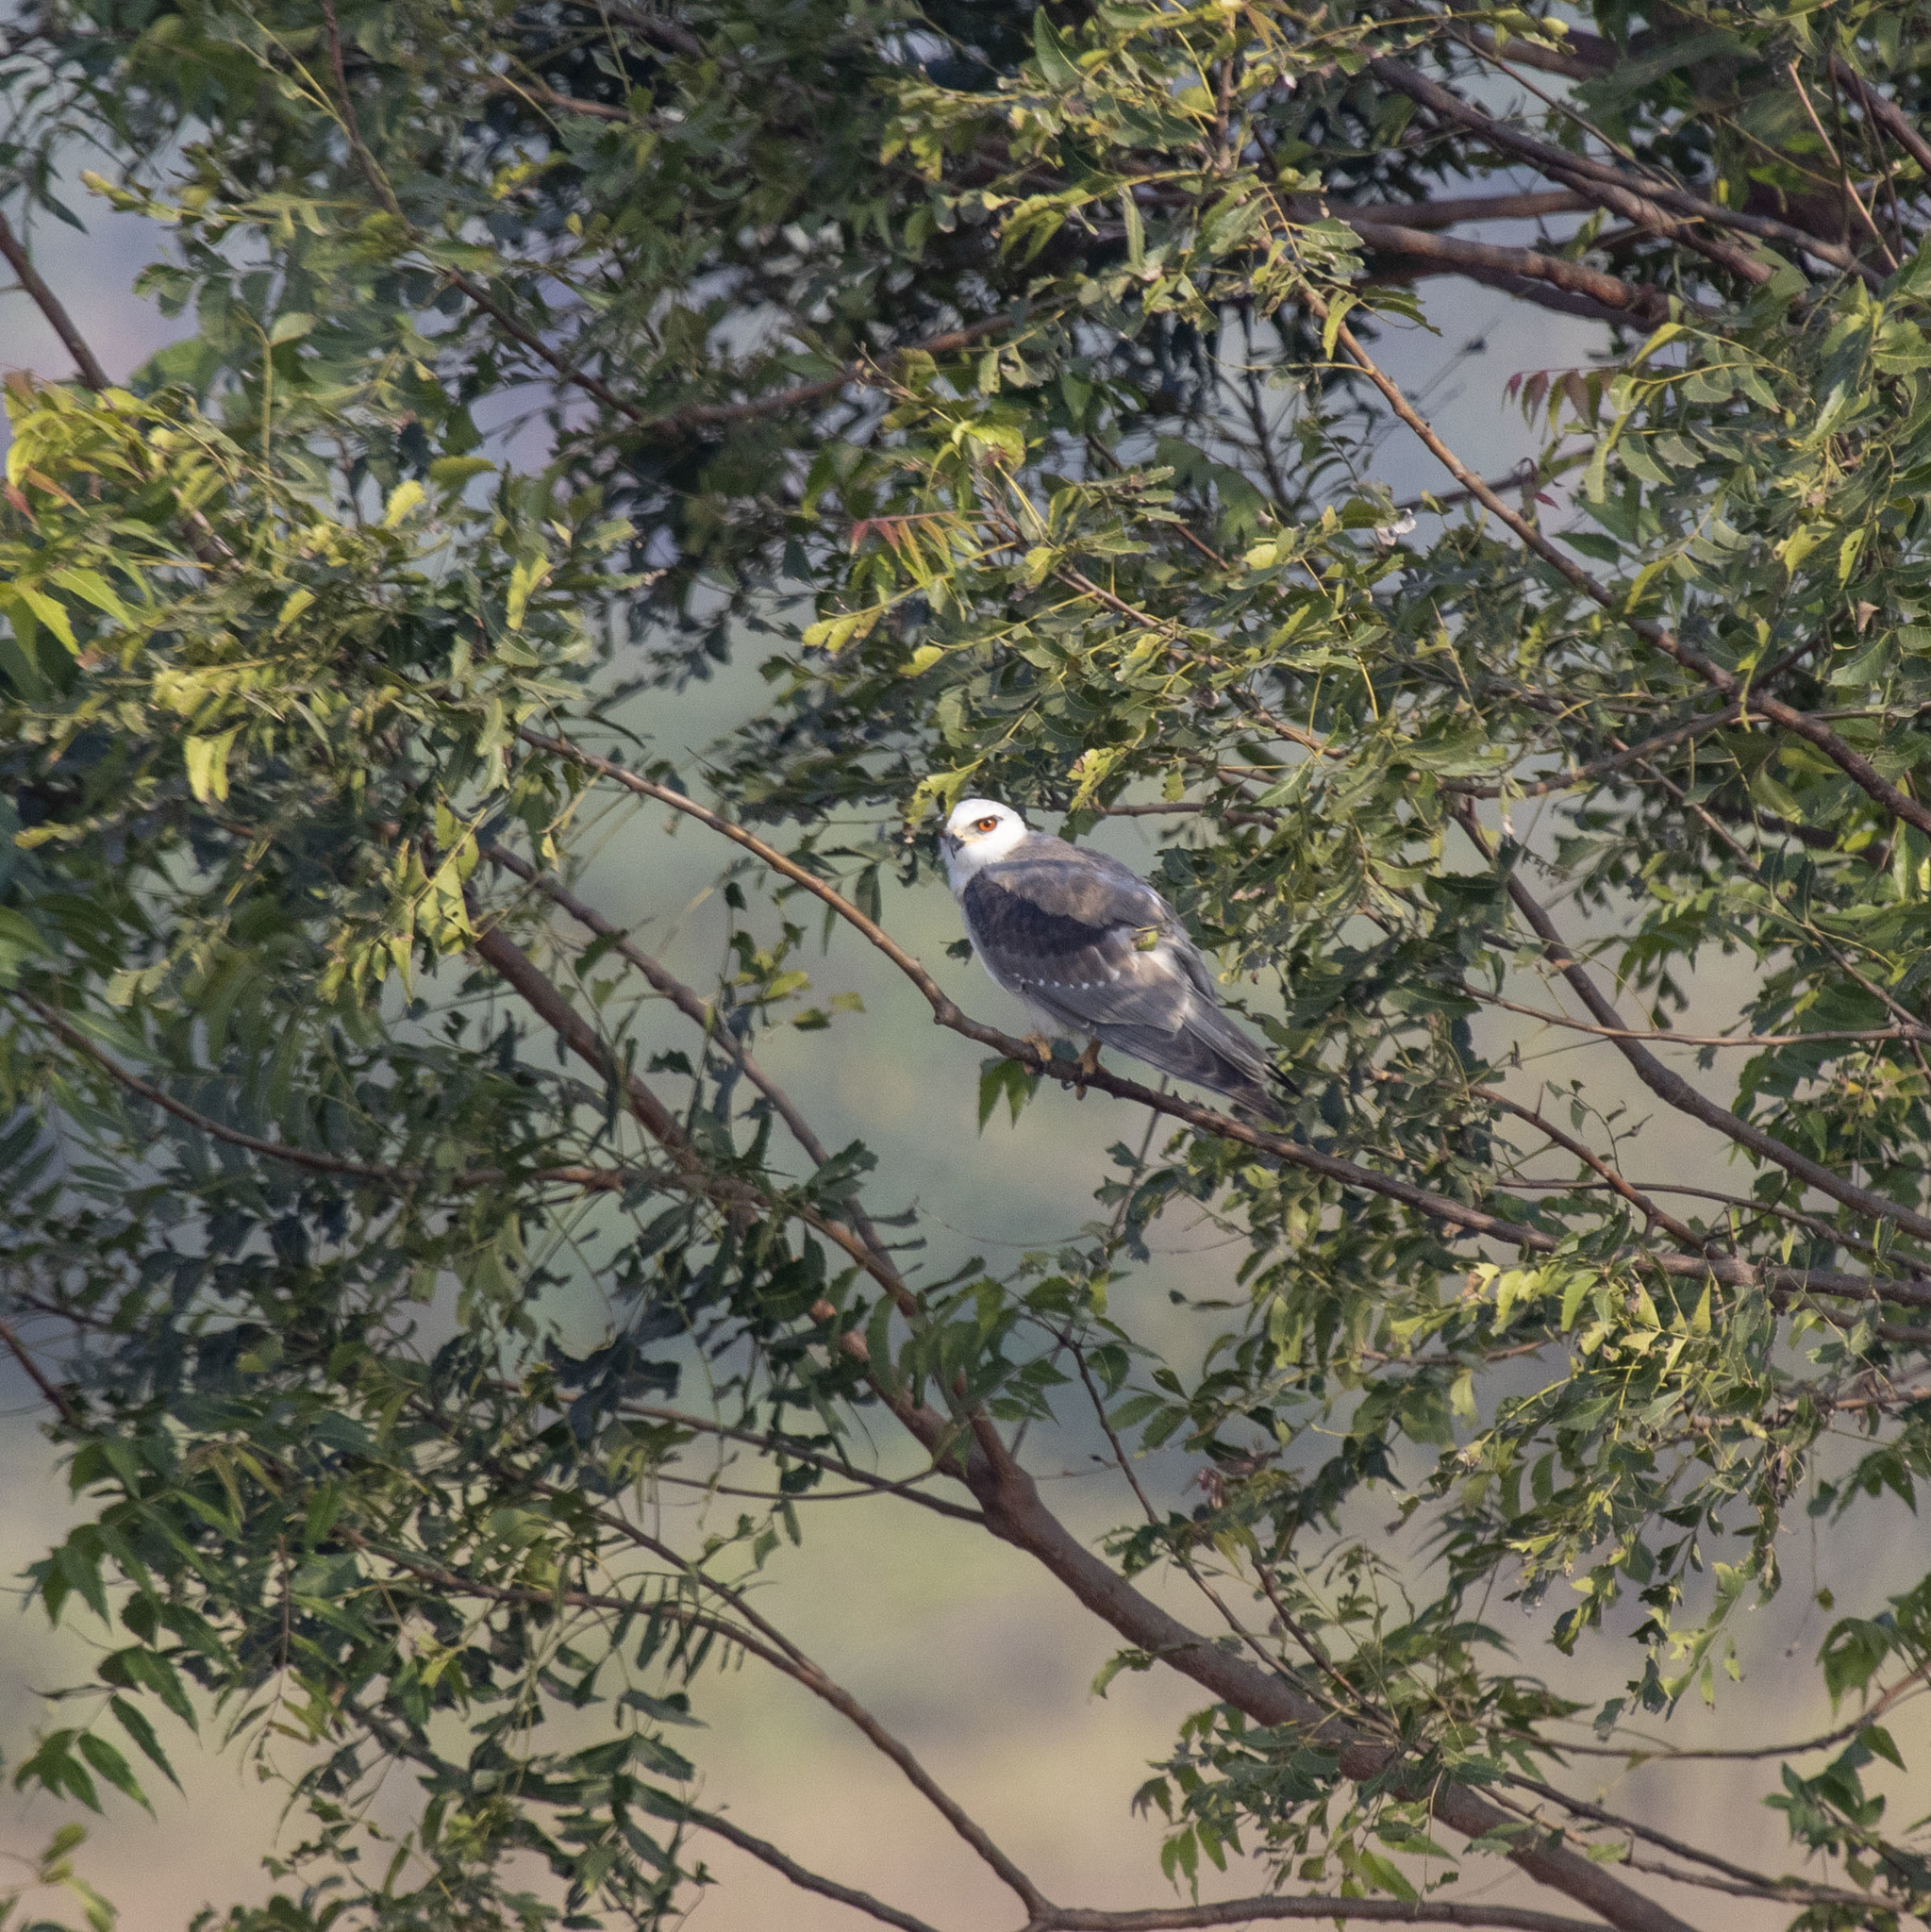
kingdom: Animalia
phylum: Chordata
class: Aves
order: Accipitriformes
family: Accipitridae
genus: Elanus
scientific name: Elanus caeruleus
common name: Black-winged kite
